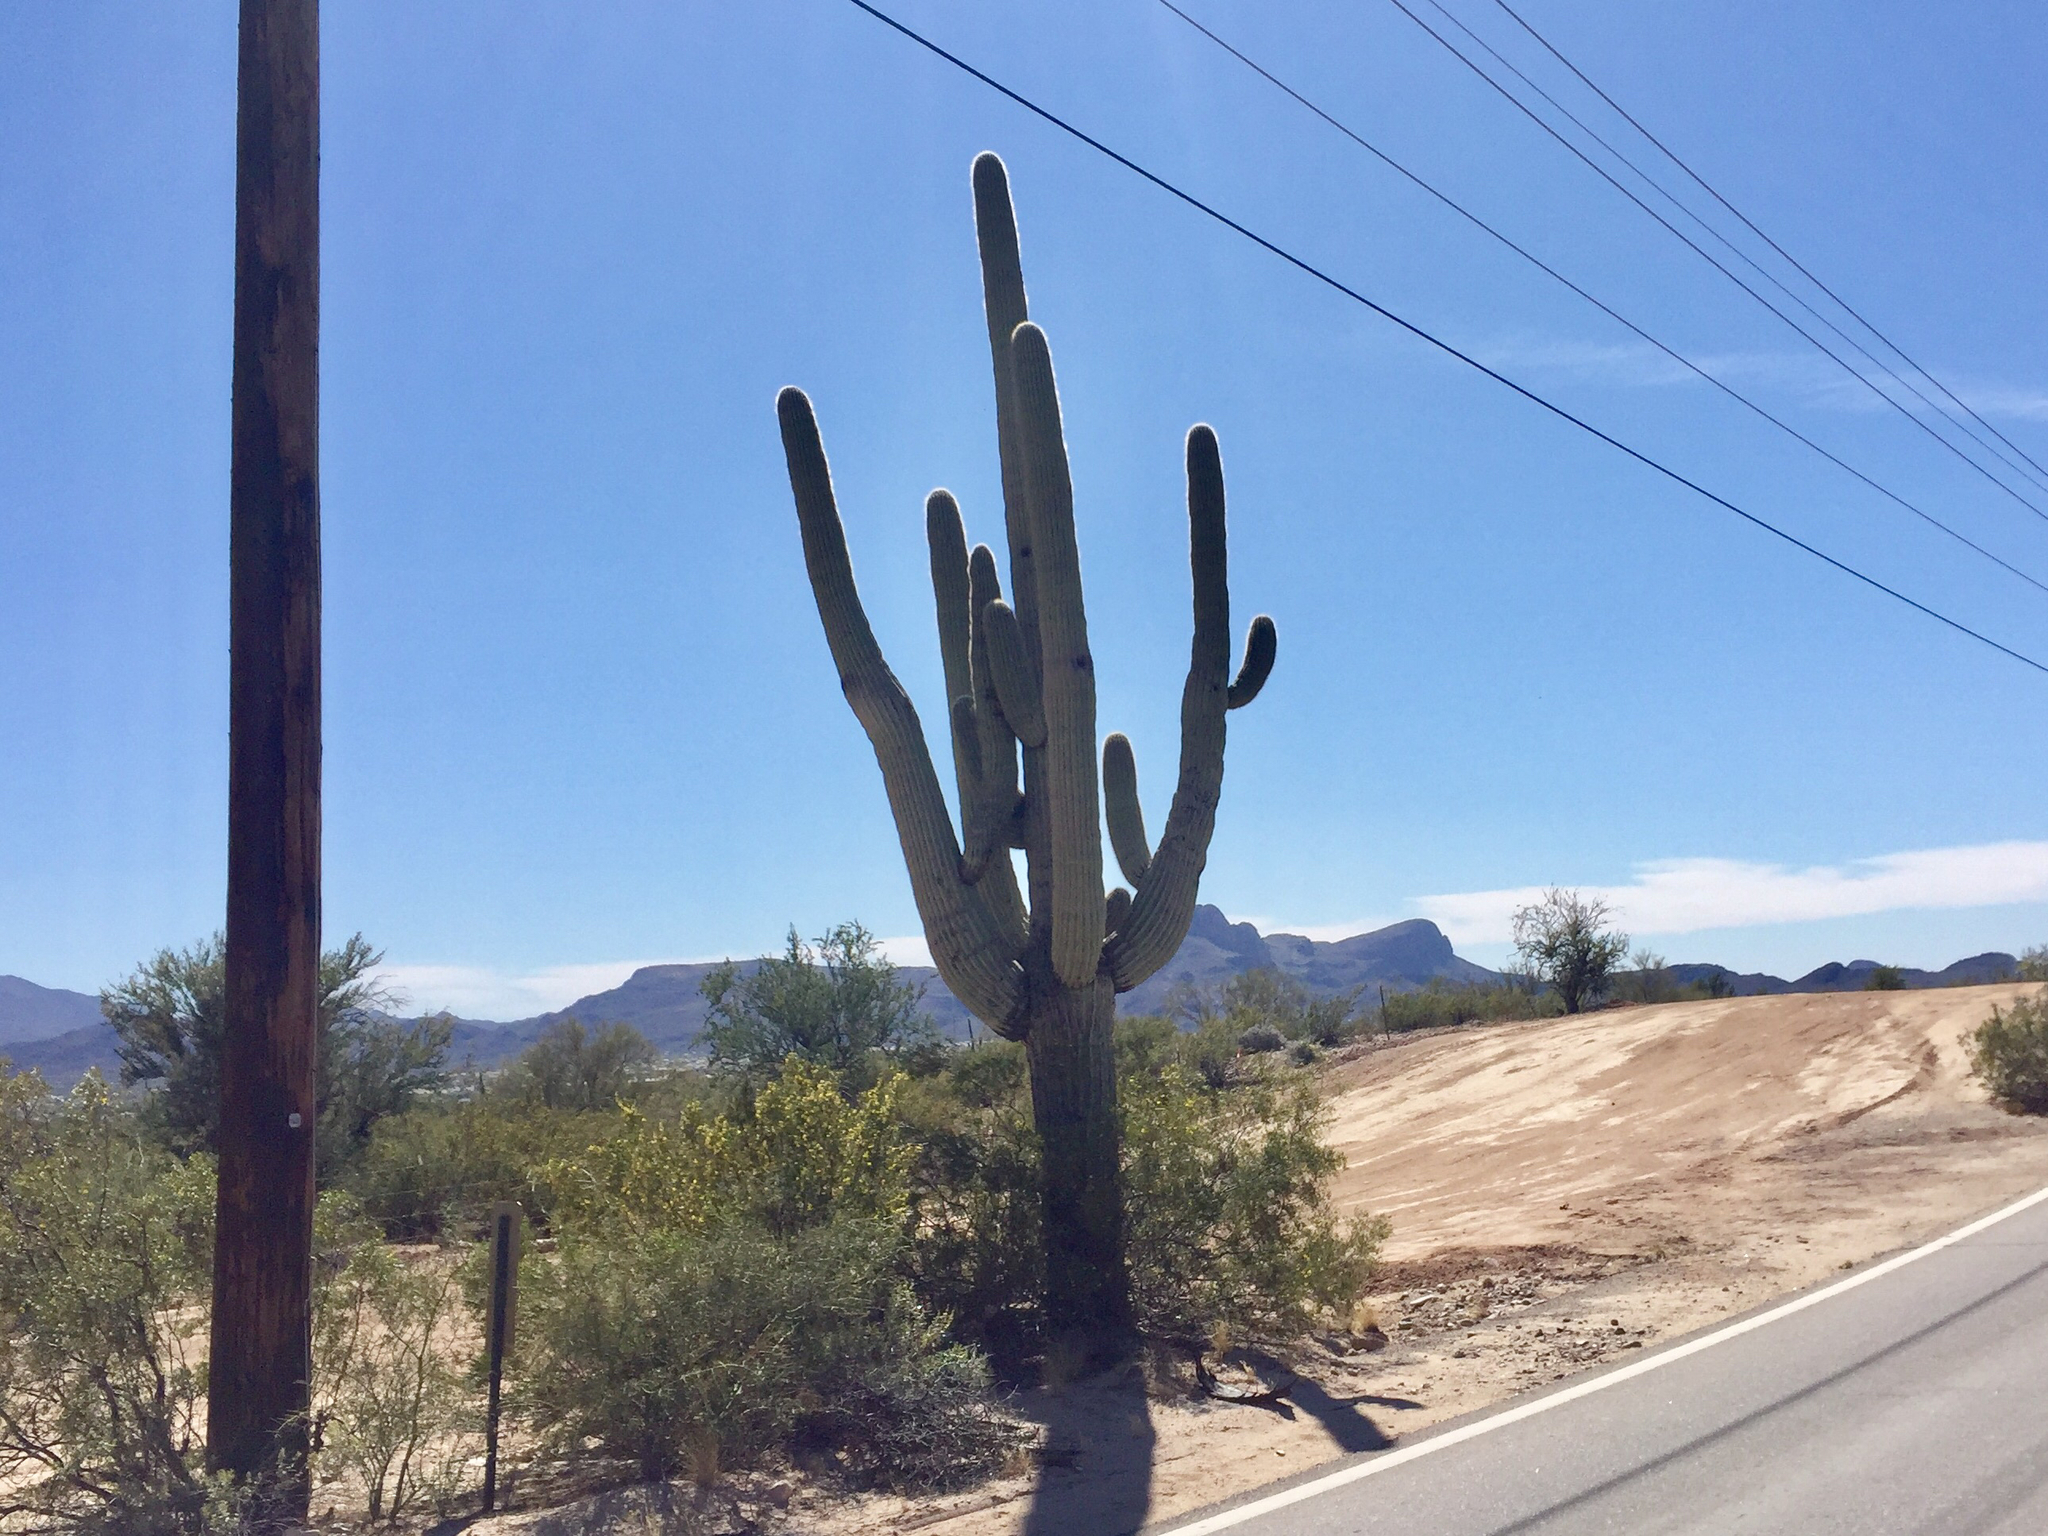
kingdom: Plantae
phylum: Tracheophyta
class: Magnoliopsida
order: Caryophyllales
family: Cactaceae
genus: Carnegiea
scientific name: Carnegiea gigantea
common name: Saguaro
